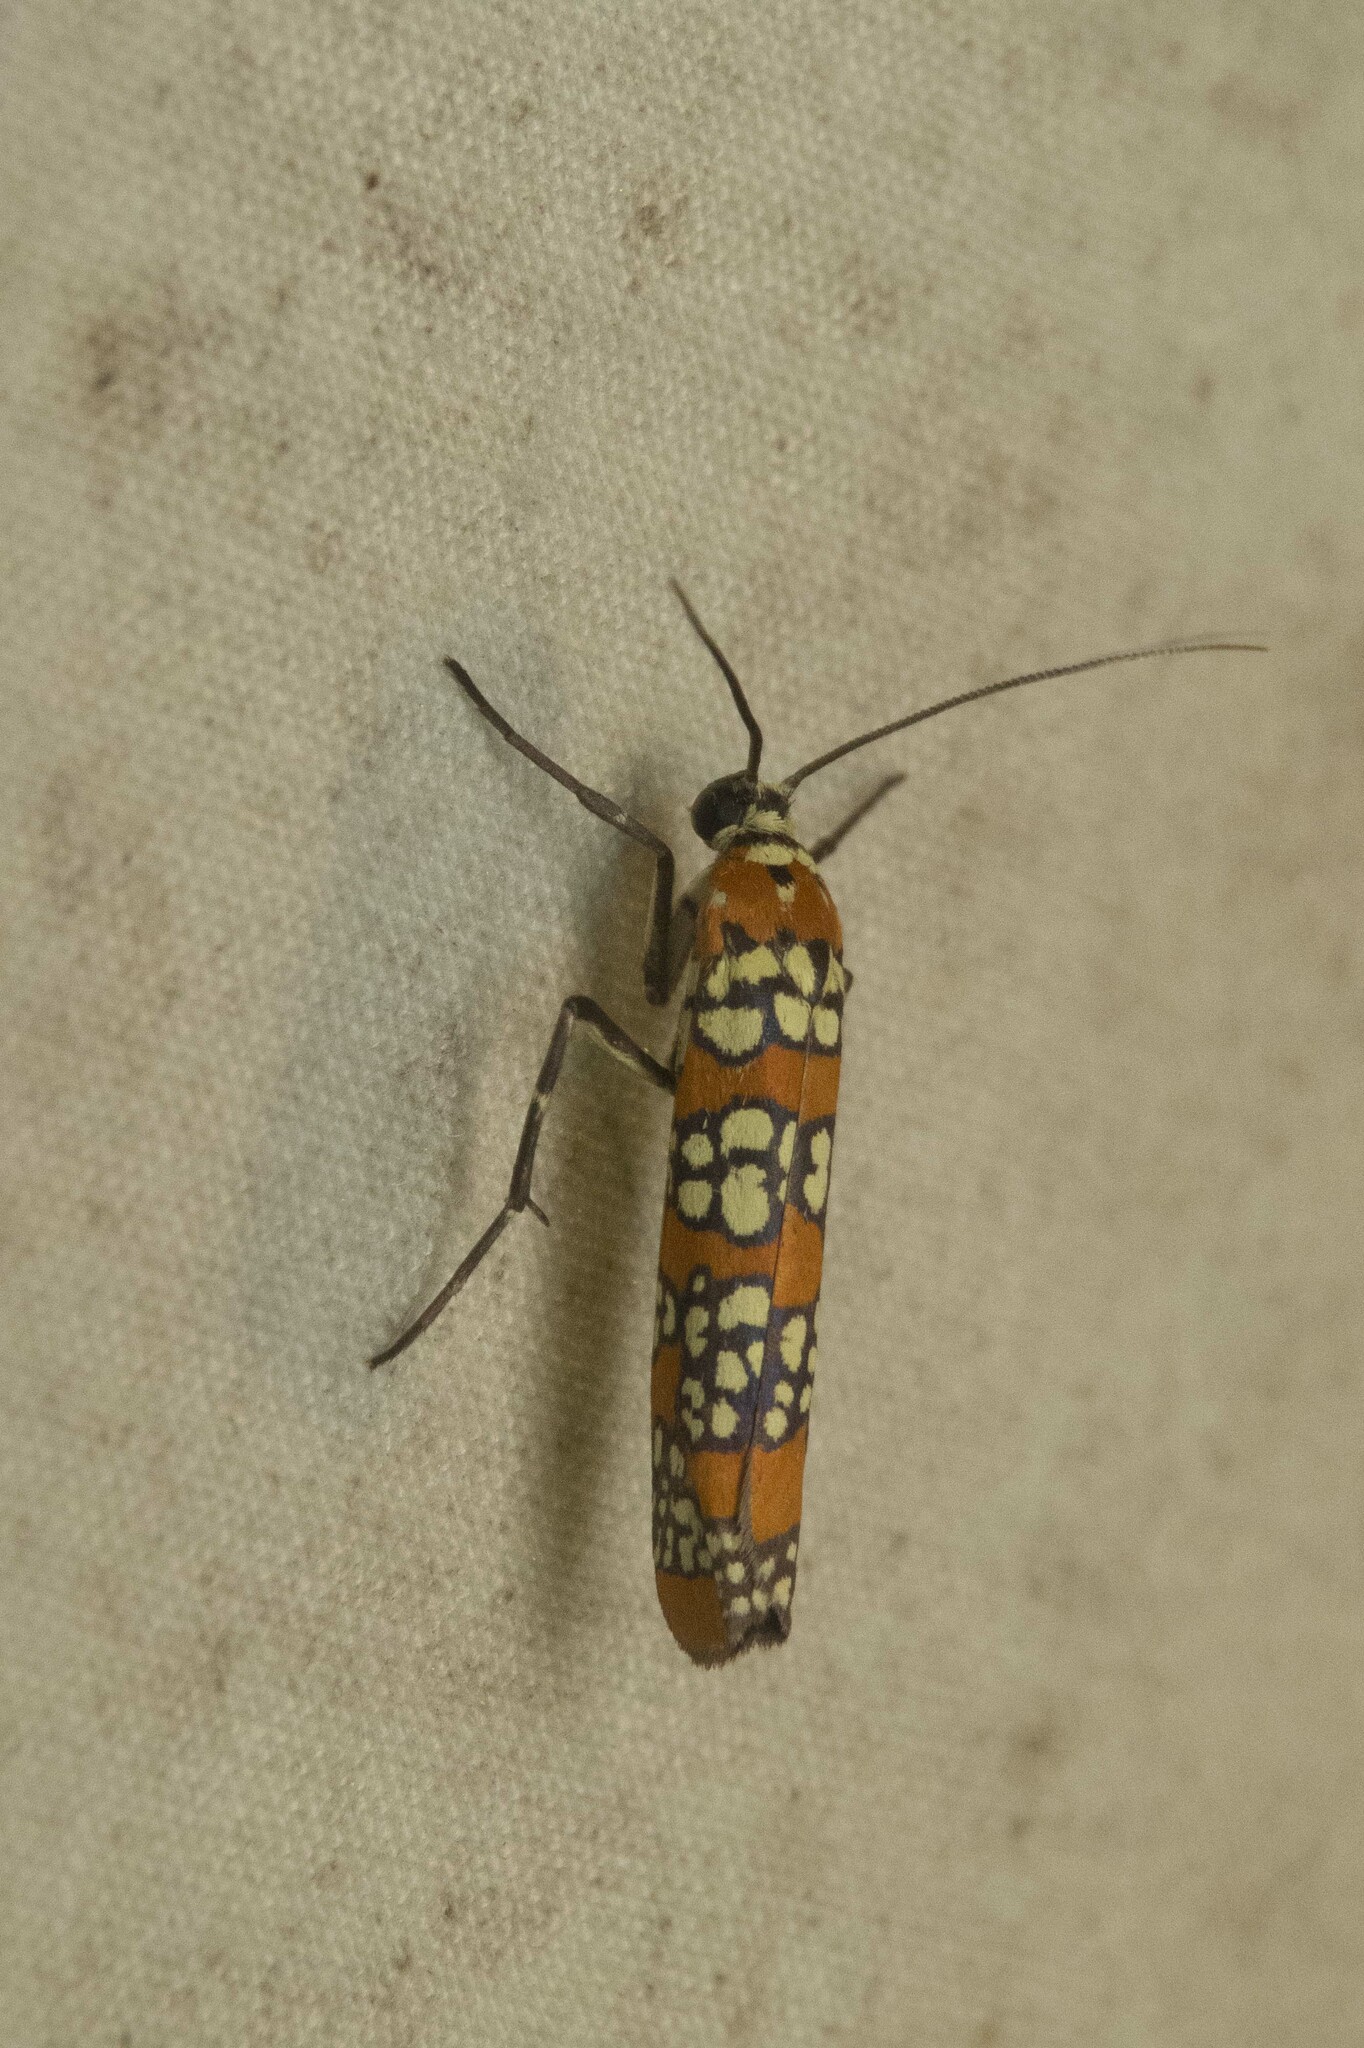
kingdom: Animalia
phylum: Arthropoda
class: Insecta
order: Lepidoptera
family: Attevidae
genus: Atteva
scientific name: Atteva punctella
